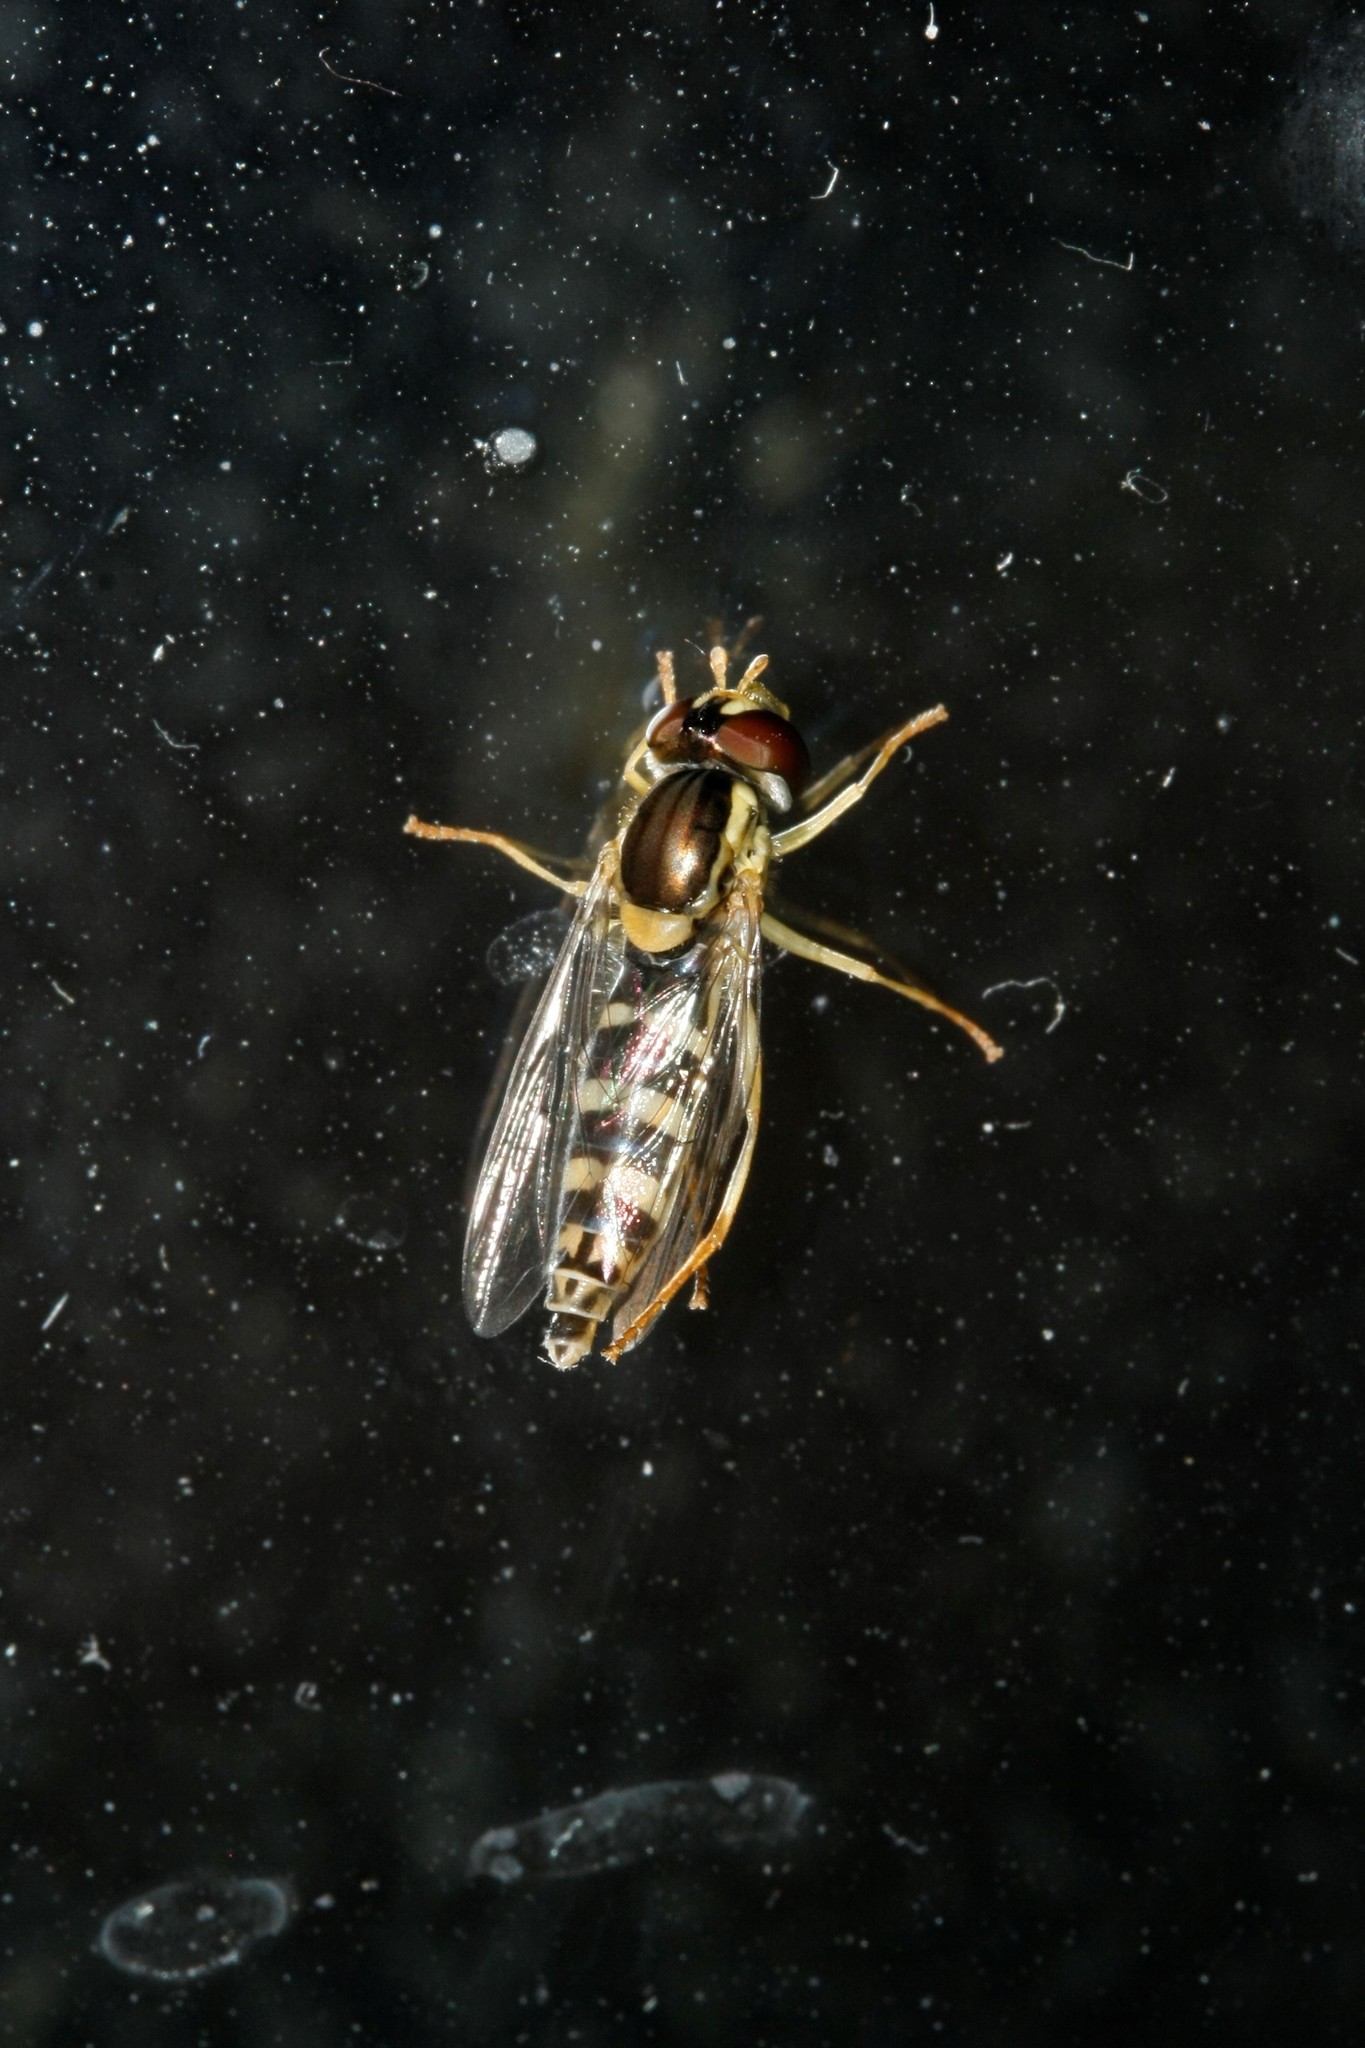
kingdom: Animalia
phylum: Arthropoda
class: Insecta
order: Diptera
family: Syrphidae
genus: Sphaerophoria
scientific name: Sphaerophoria
